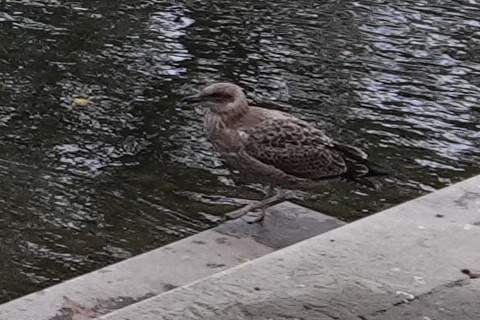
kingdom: Animalia
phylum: Chordata
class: Aves
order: Charadriiformes
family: Laridae
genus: Larus
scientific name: Larus dominicanus
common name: Kelp gull
